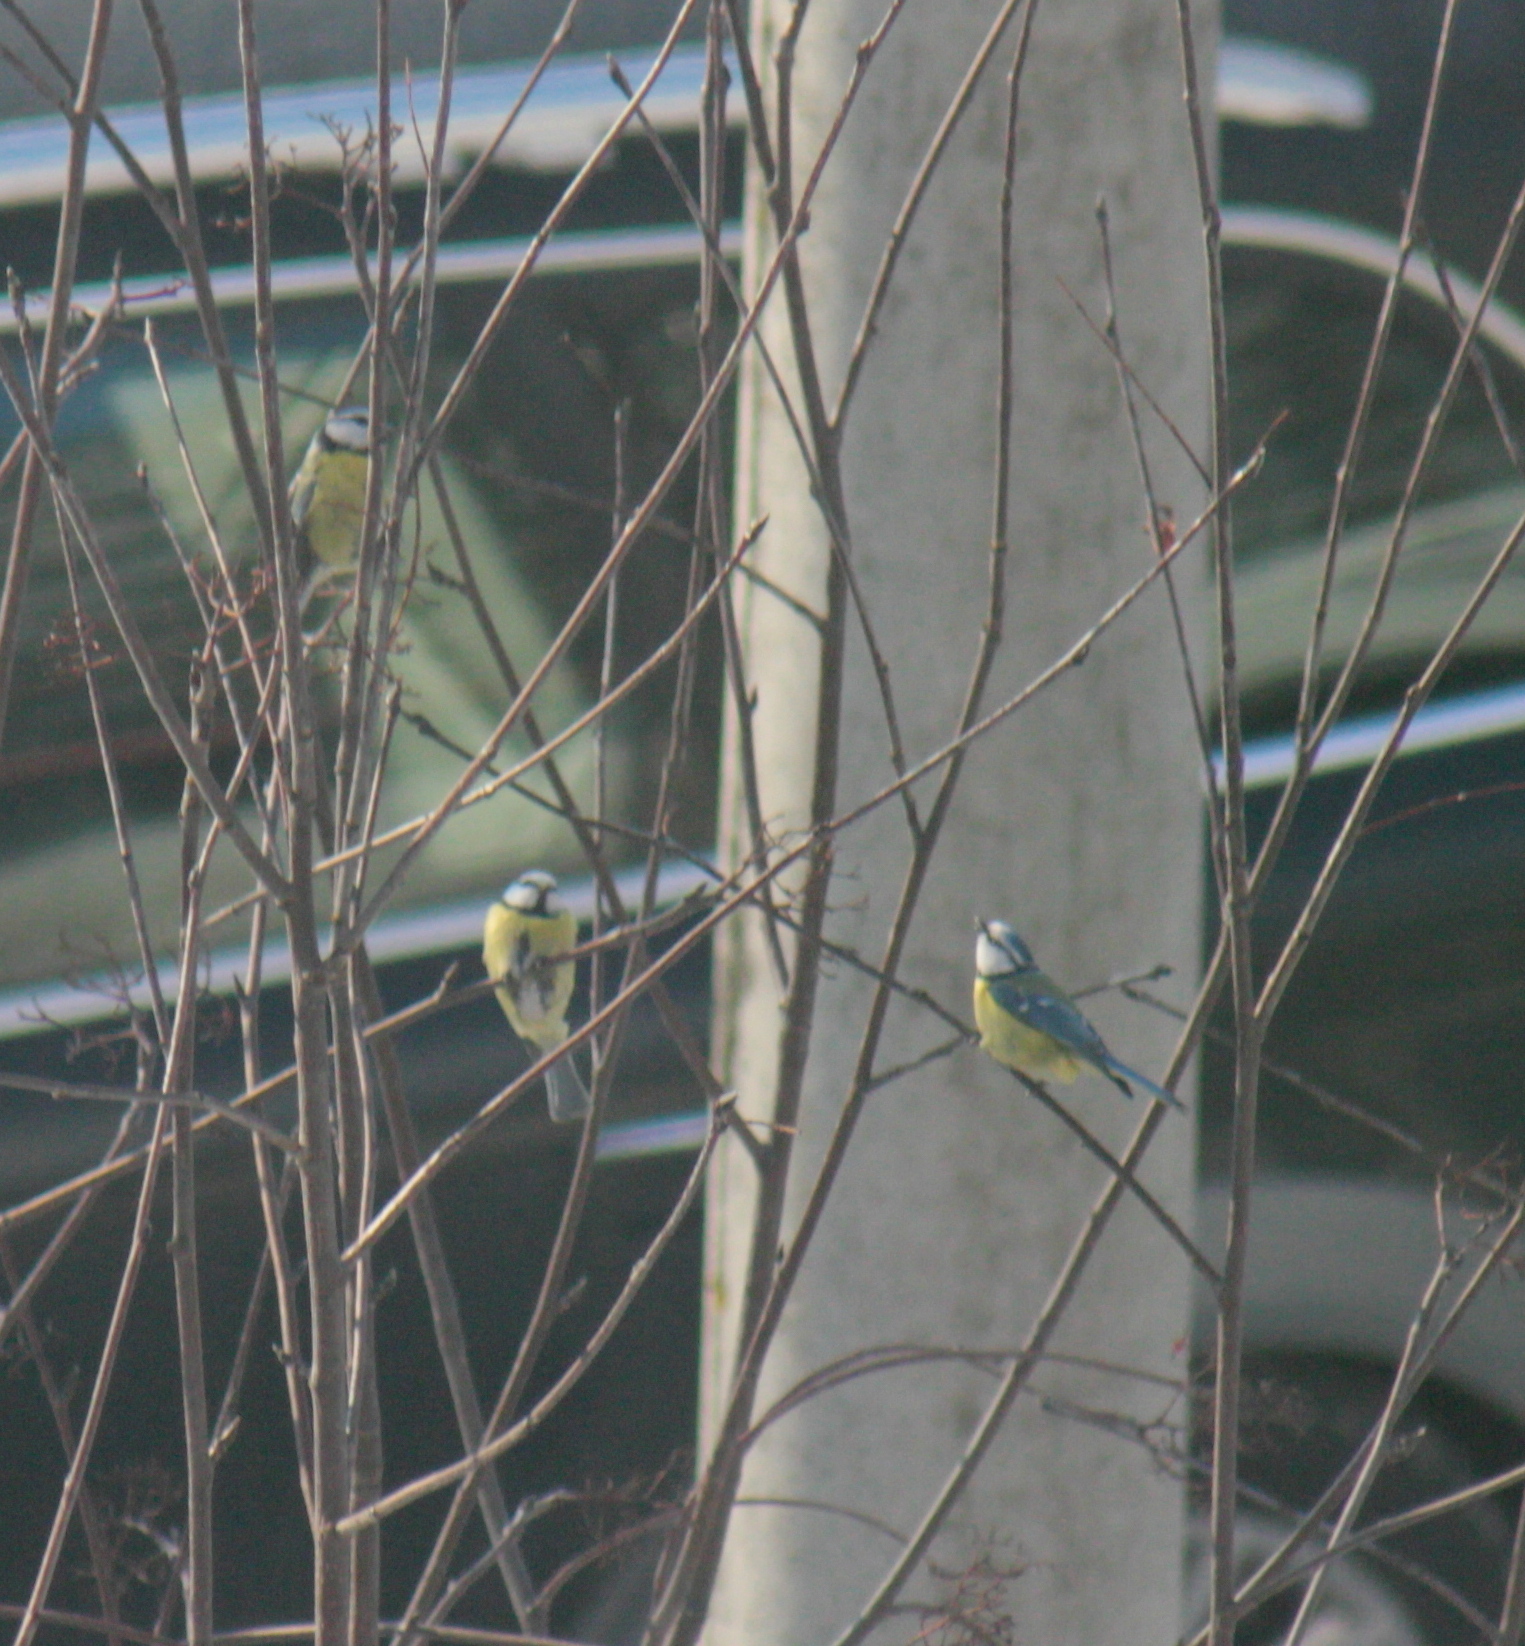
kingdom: Animalia
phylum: Chordata
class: Aves
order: Passeriformes
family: Paridae
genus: Cyanistes
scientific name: Cyanistes caeruleus
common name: Eurasian blue tit
